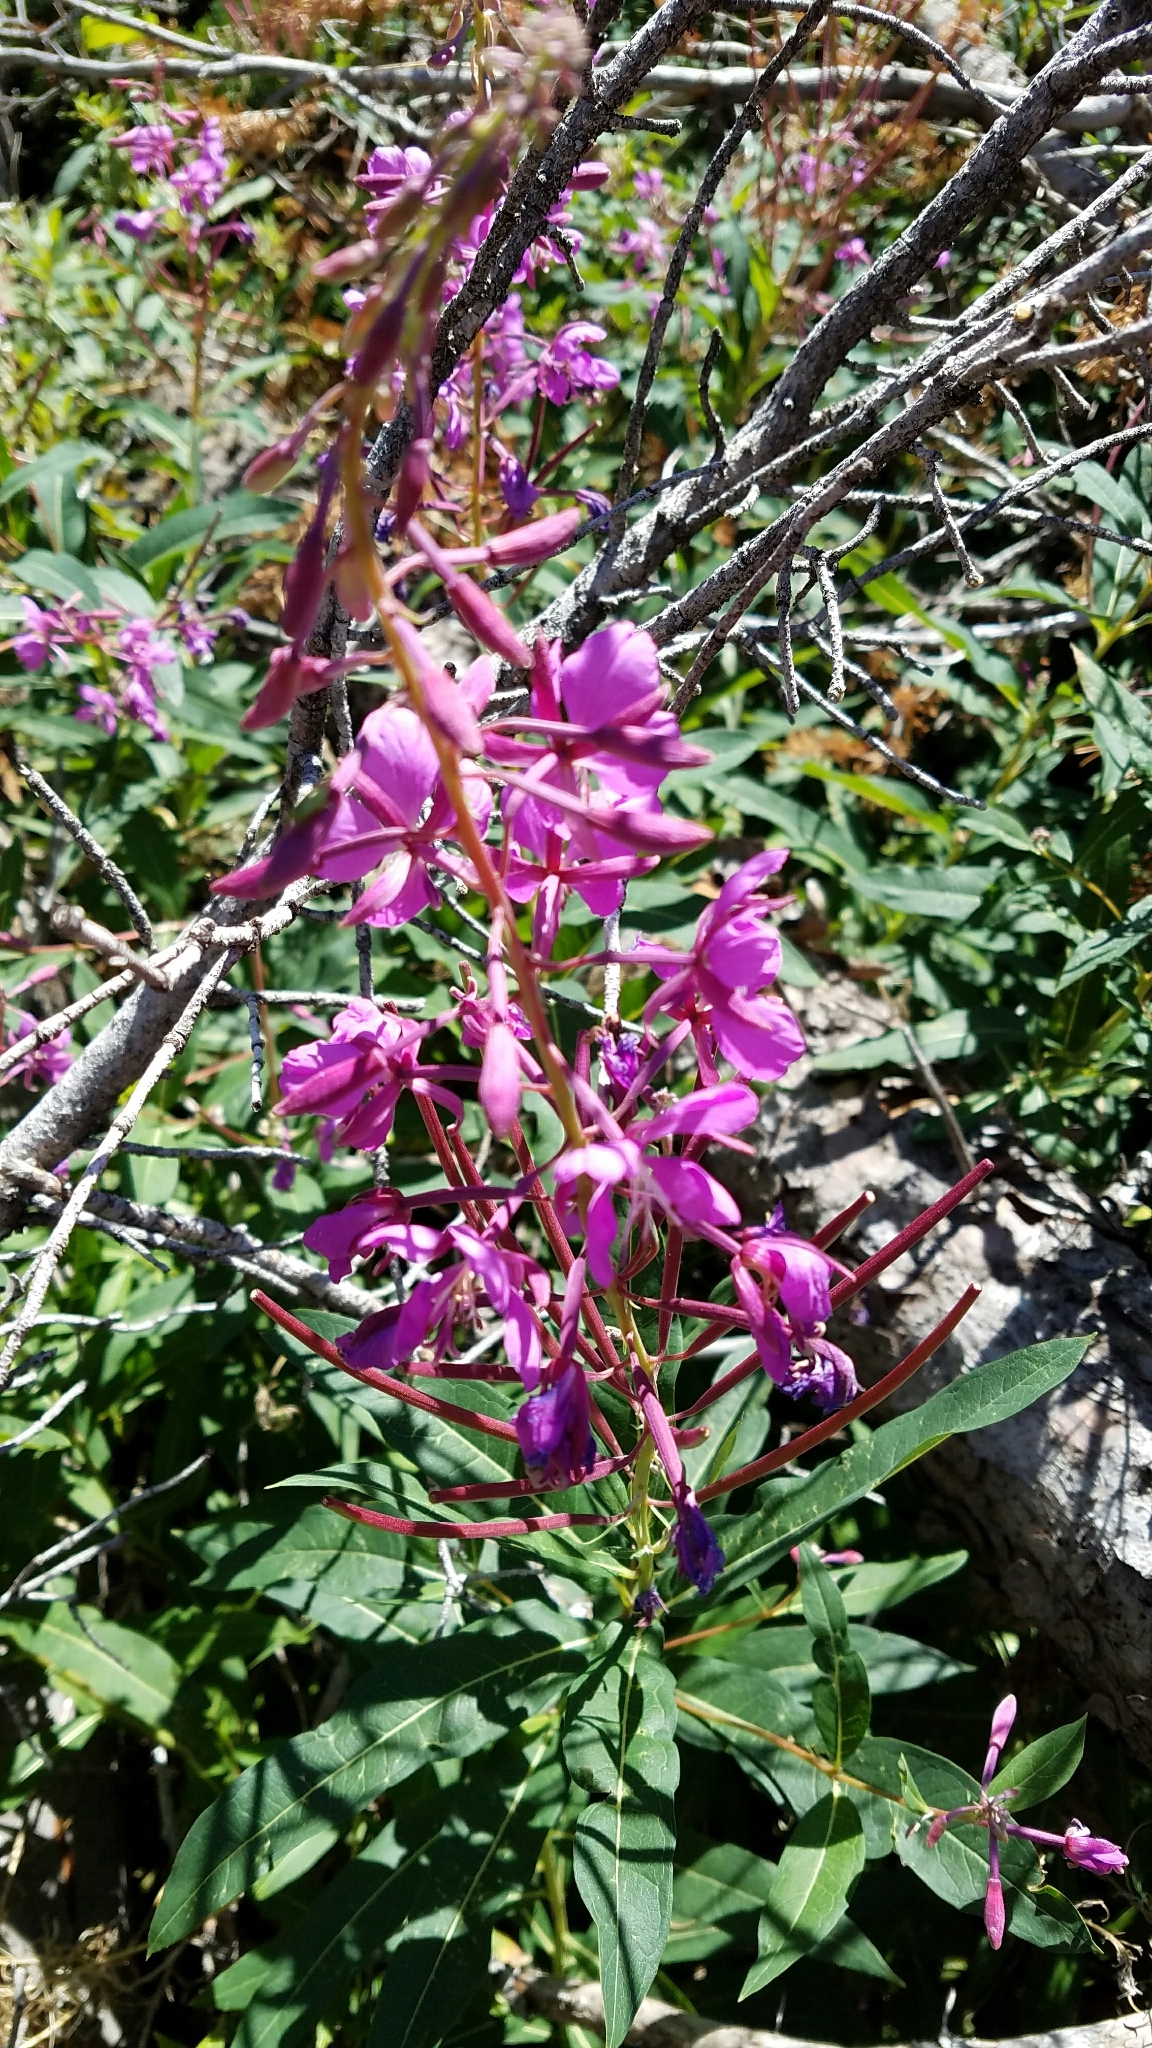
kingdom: Plantae
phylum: Tracheophyta
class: Magnoliopsida
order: Myrtales
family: Onagraceae
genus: Chamaenerion
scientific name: Chamaenerion angustifolium
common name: Fireweed
